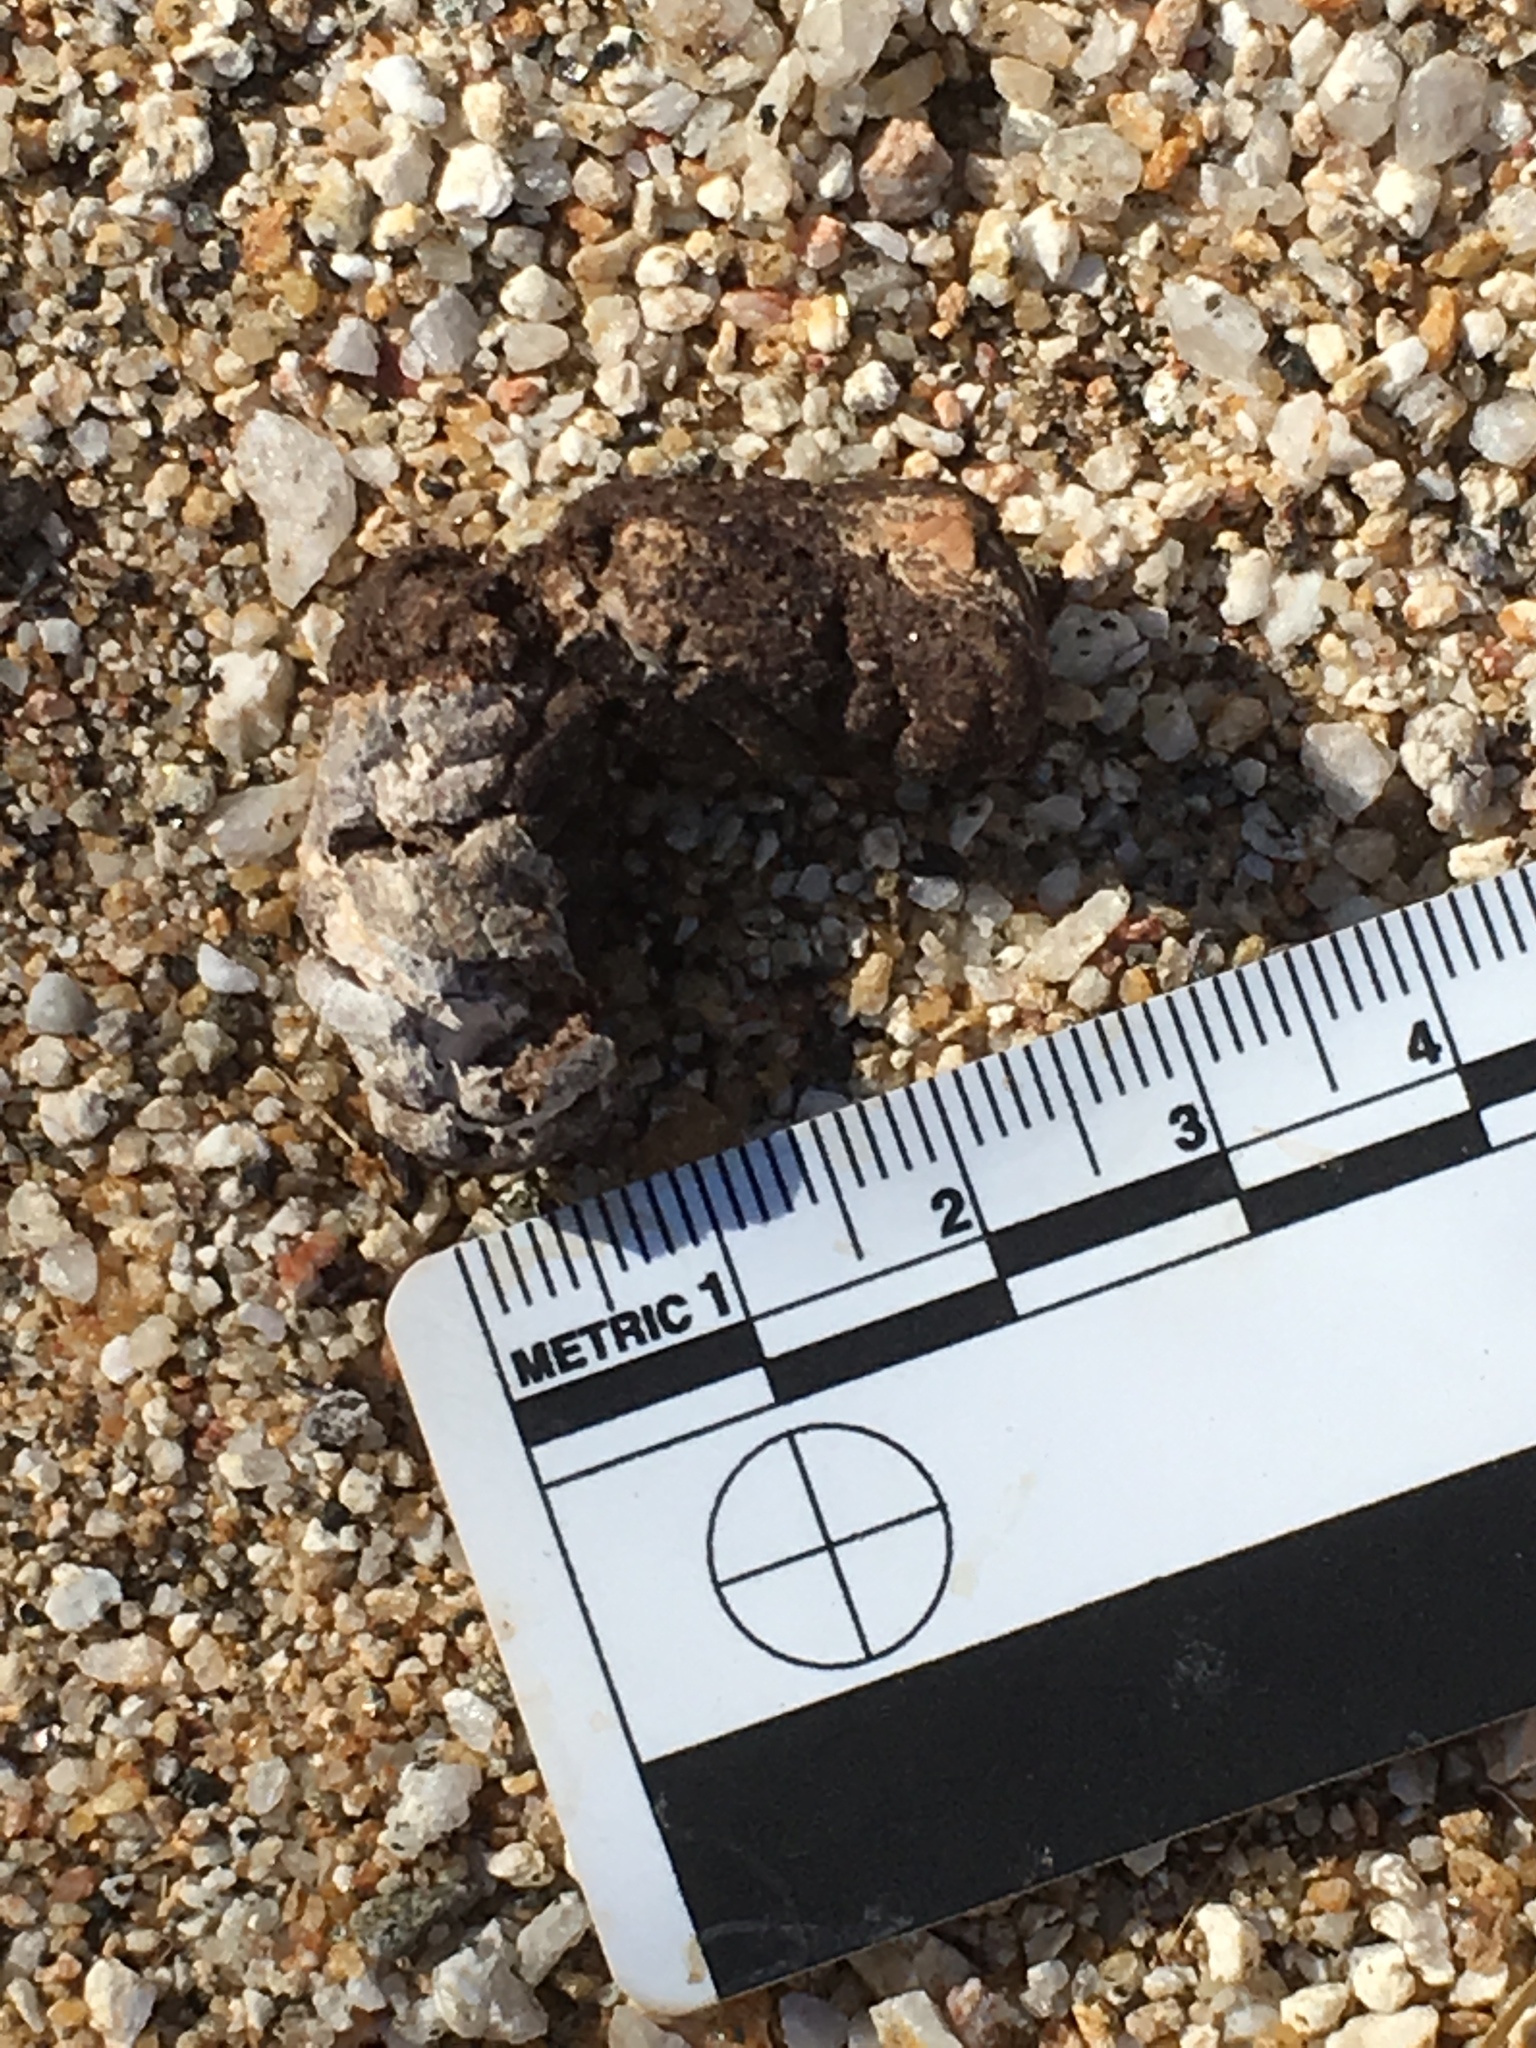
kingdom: Animalia
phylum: Chordata
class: Aves
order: Cuculiformes
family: Cuculidae
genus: Geococcyx
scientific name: Geococcyx californianus
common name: Greater roadrunner
